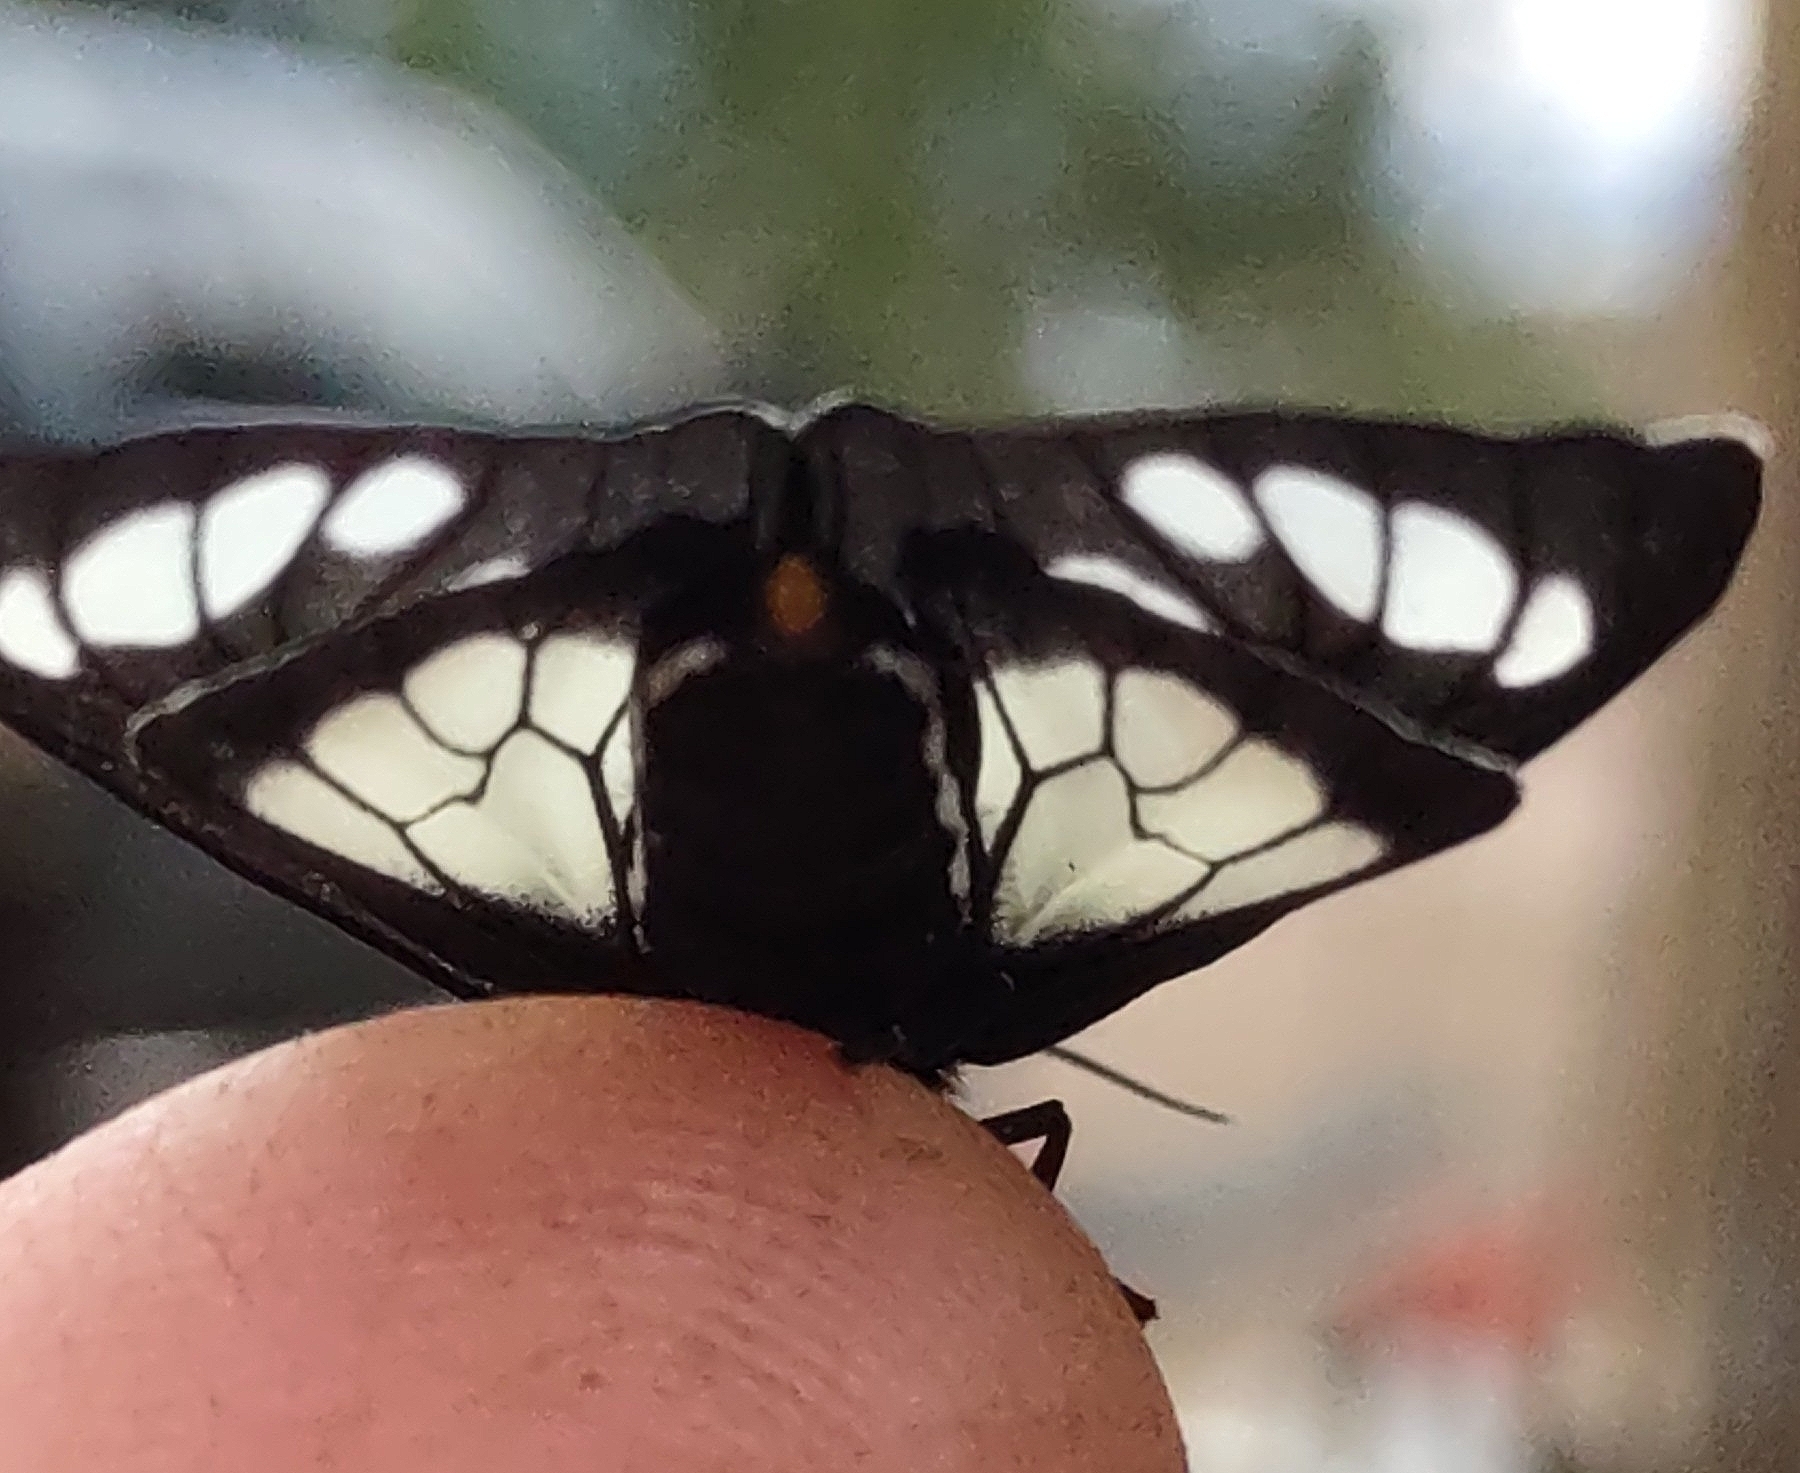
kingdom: Animalia
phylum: Arthropoda
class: Insecta
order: Lepidoptera
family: Erebidae
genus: Gnophaela
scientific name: Gnophaela vermiculata
